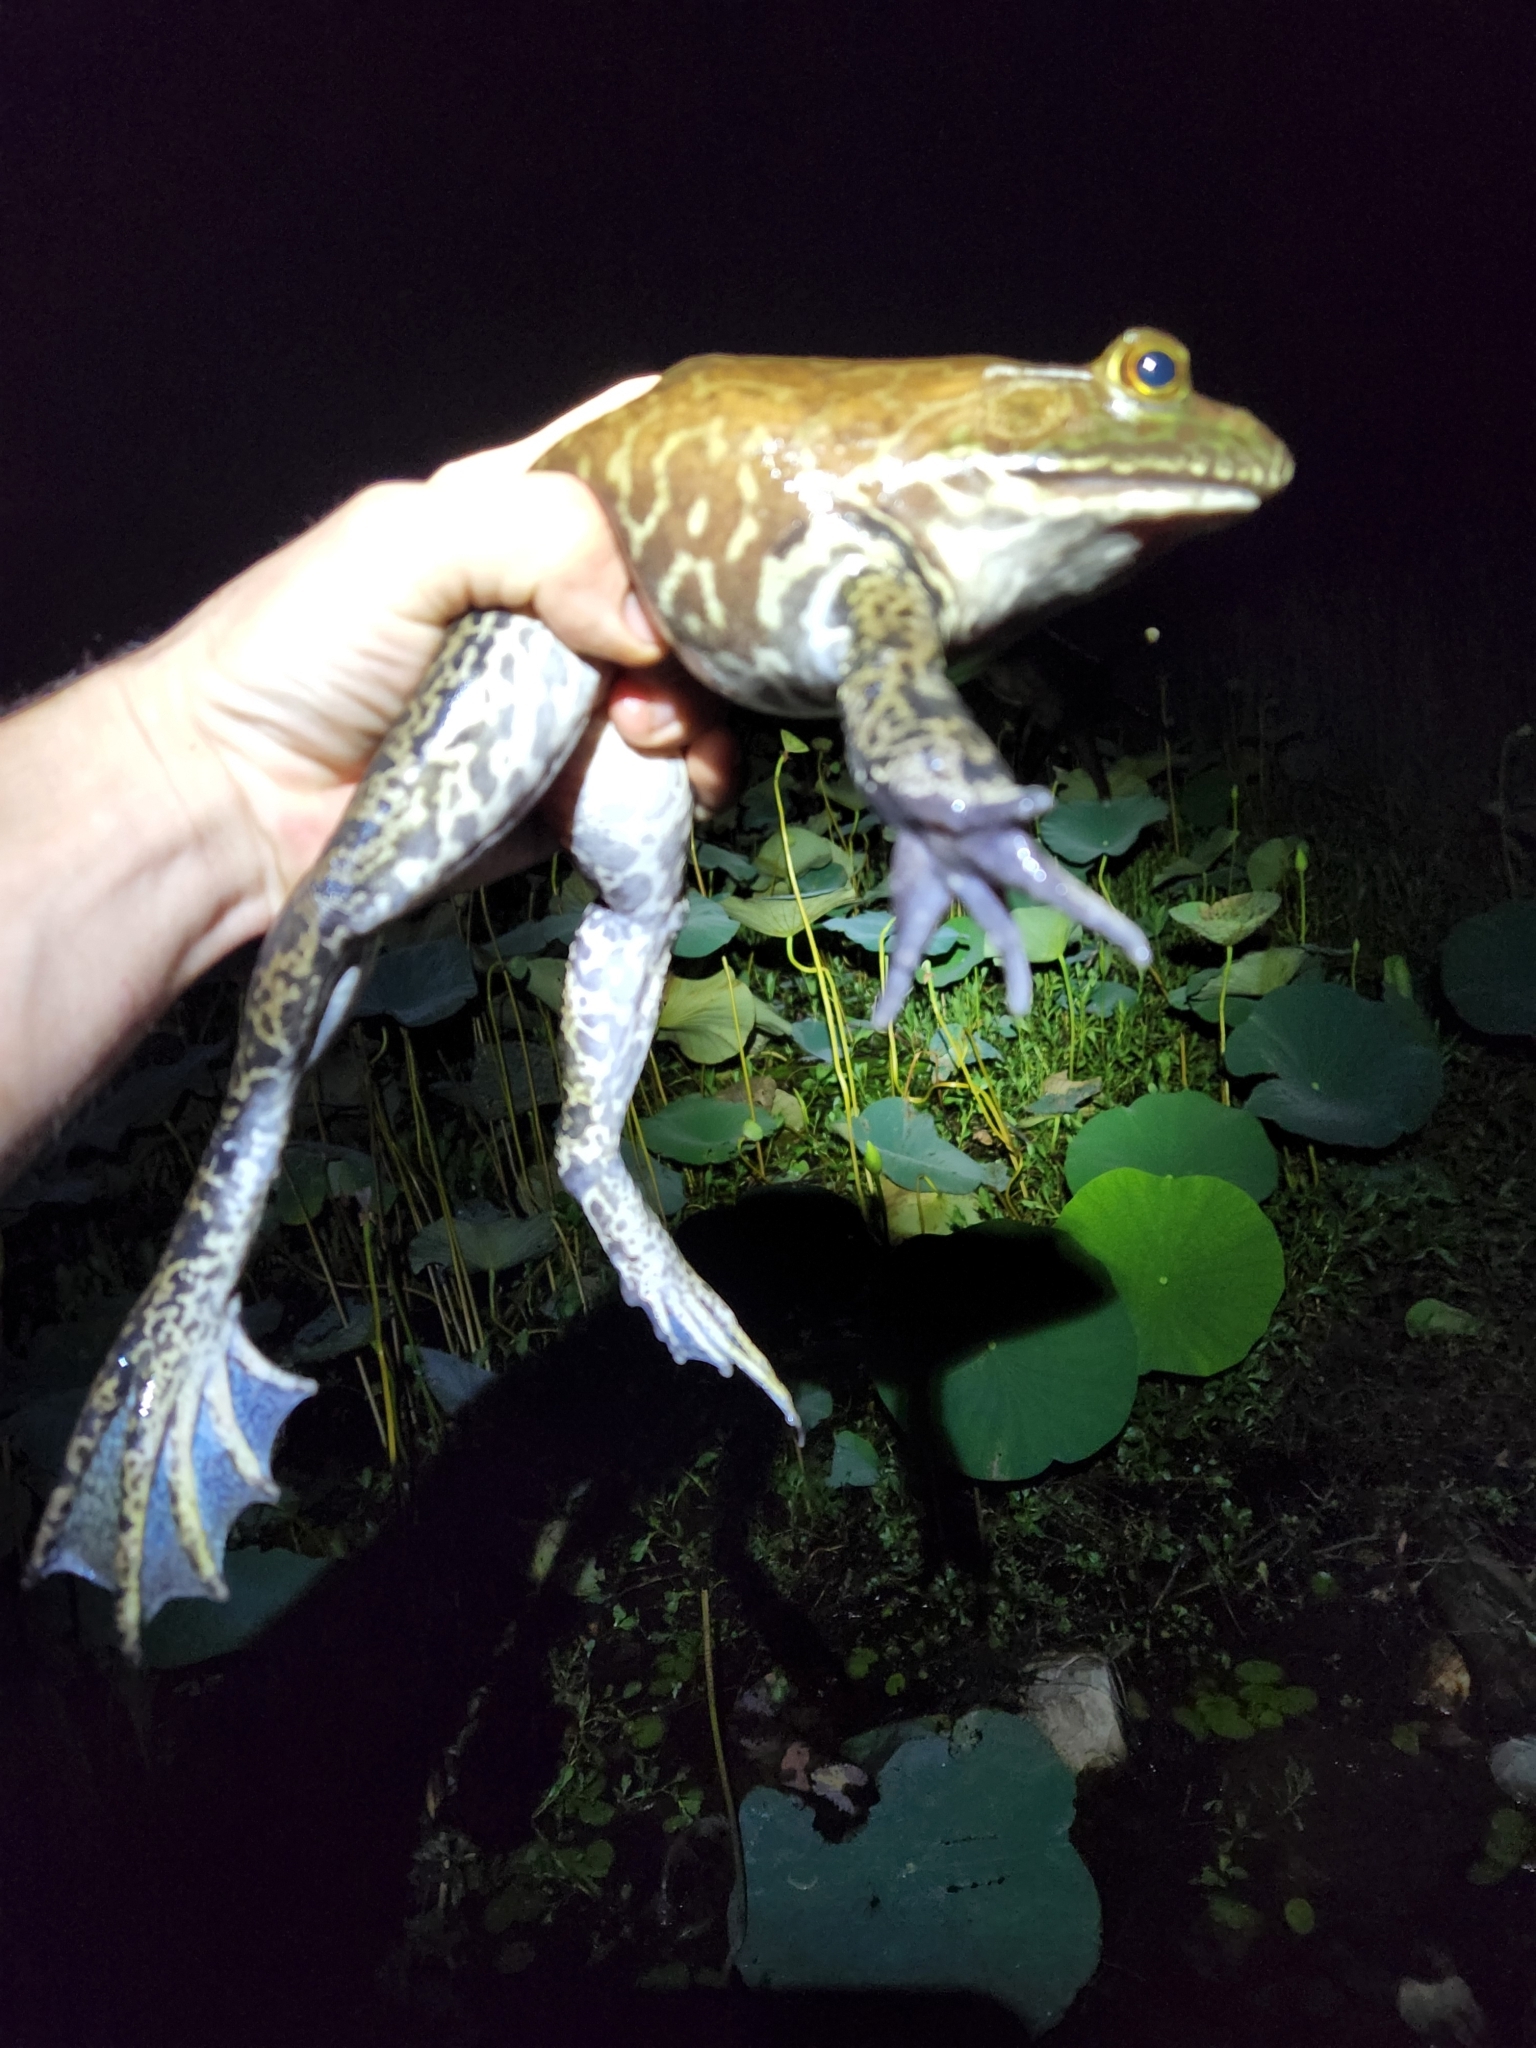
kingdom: Animalia
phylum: Chordata
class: Amphibia
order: Anura
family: Ranidae
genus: Lithobates
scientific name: Lithobates catesbeianus
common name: American bullfrog
